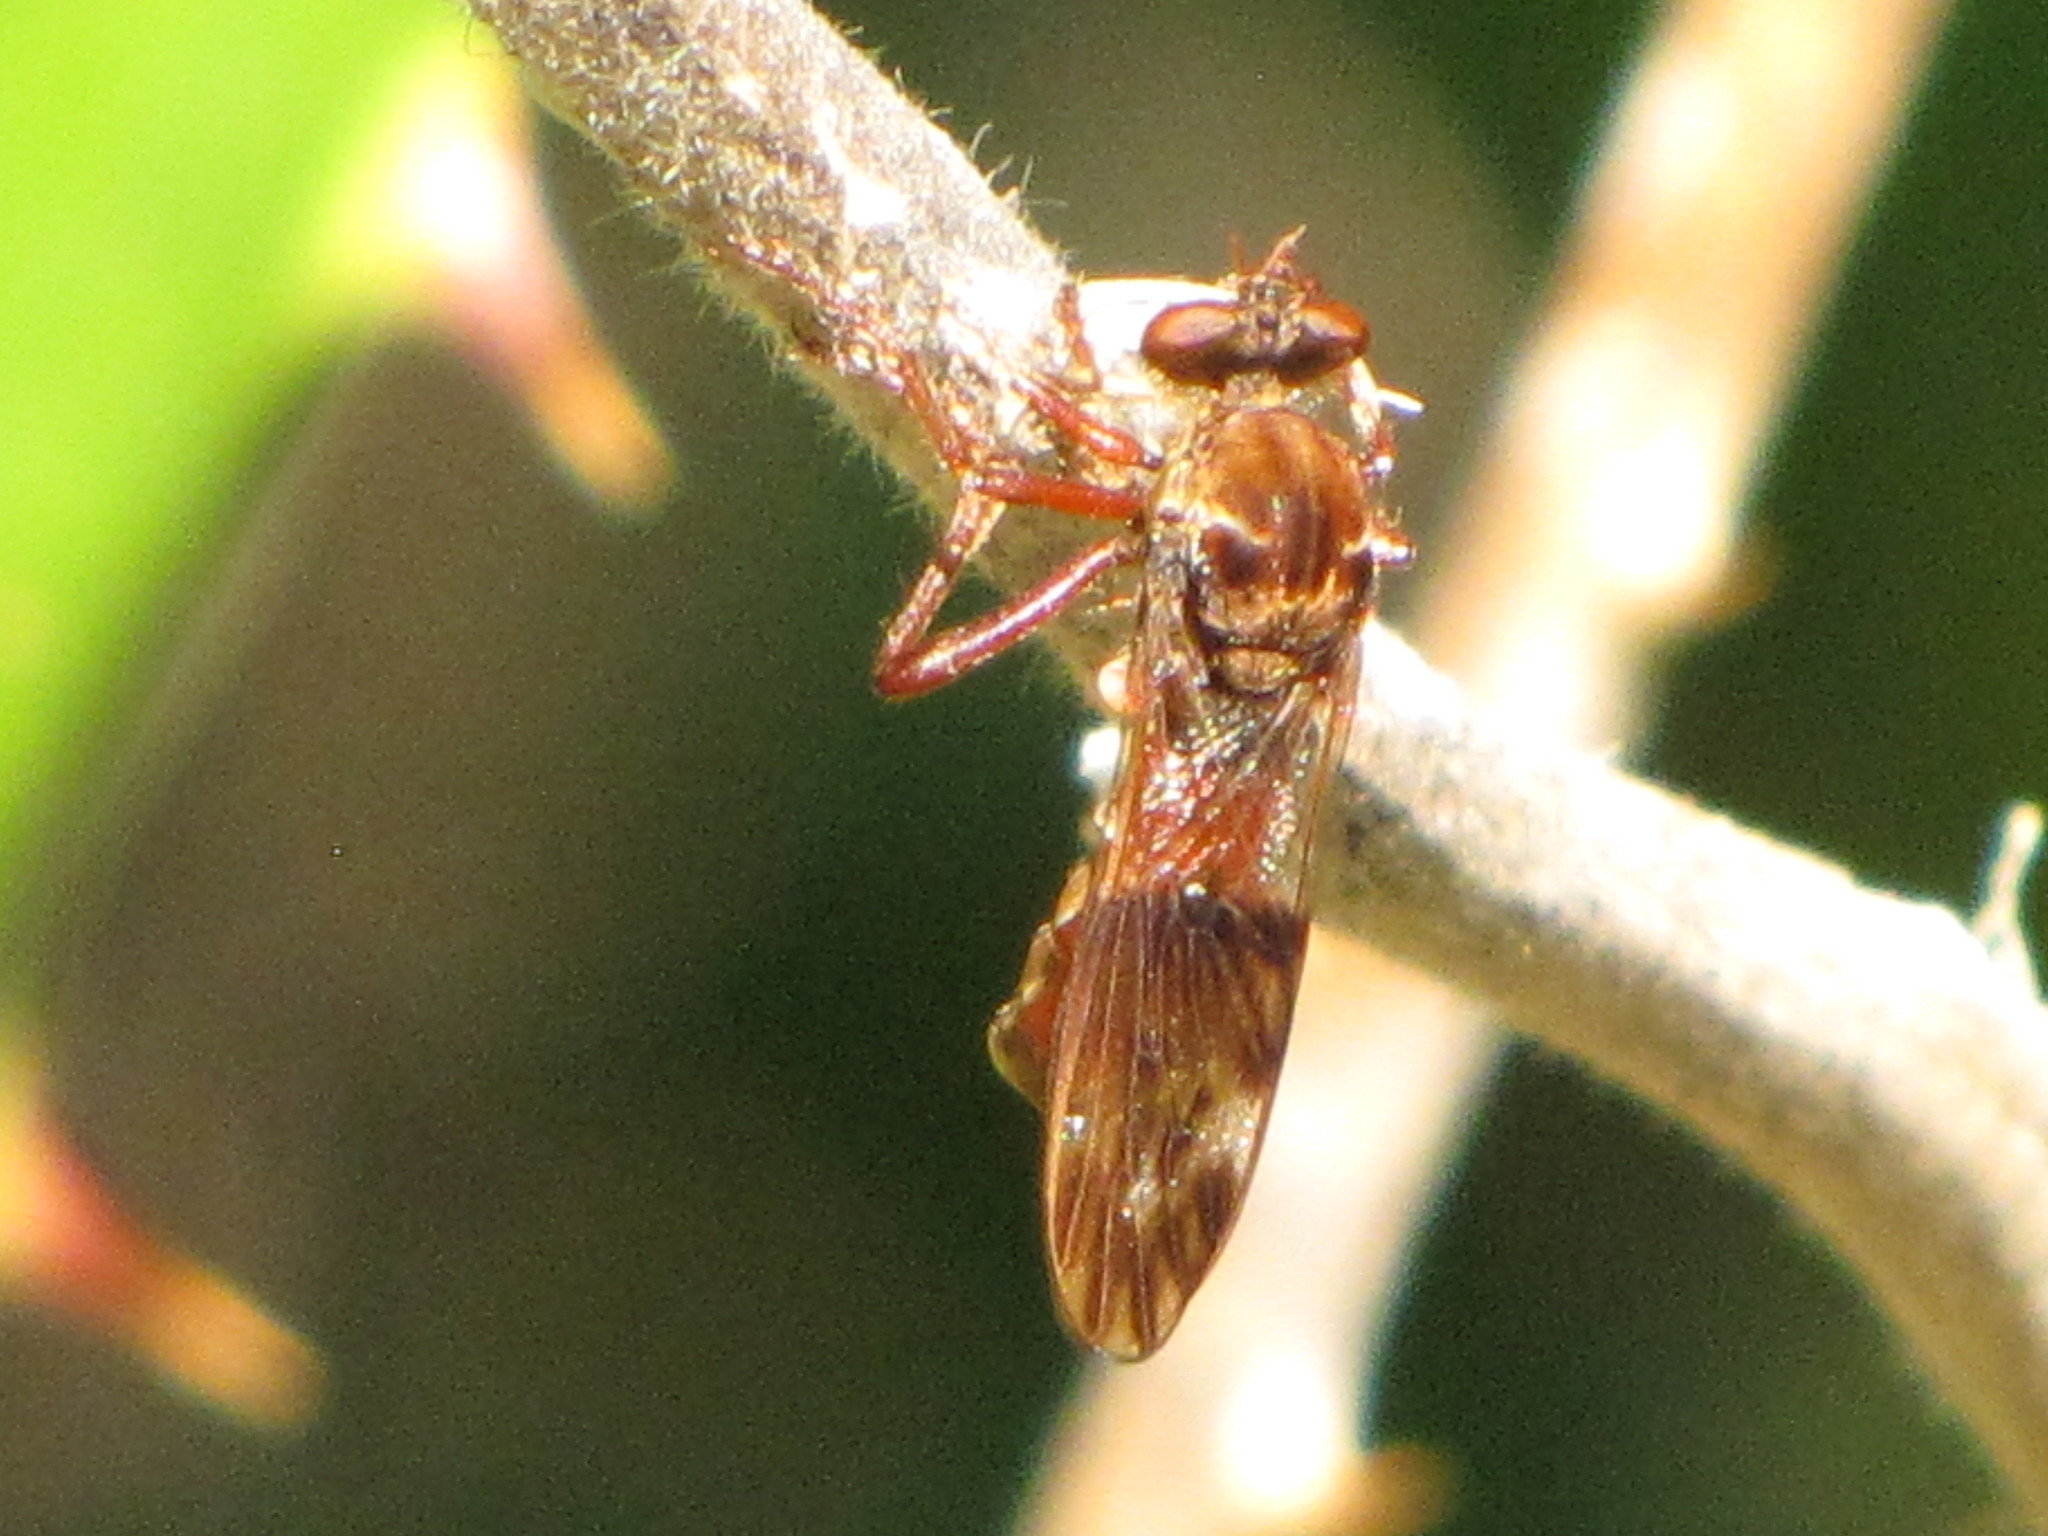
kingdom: Animalia
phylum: Arthropoda
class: Insecta
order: Diptera
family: Asilidae
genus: Nicocles
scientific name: Nicocles rufus
